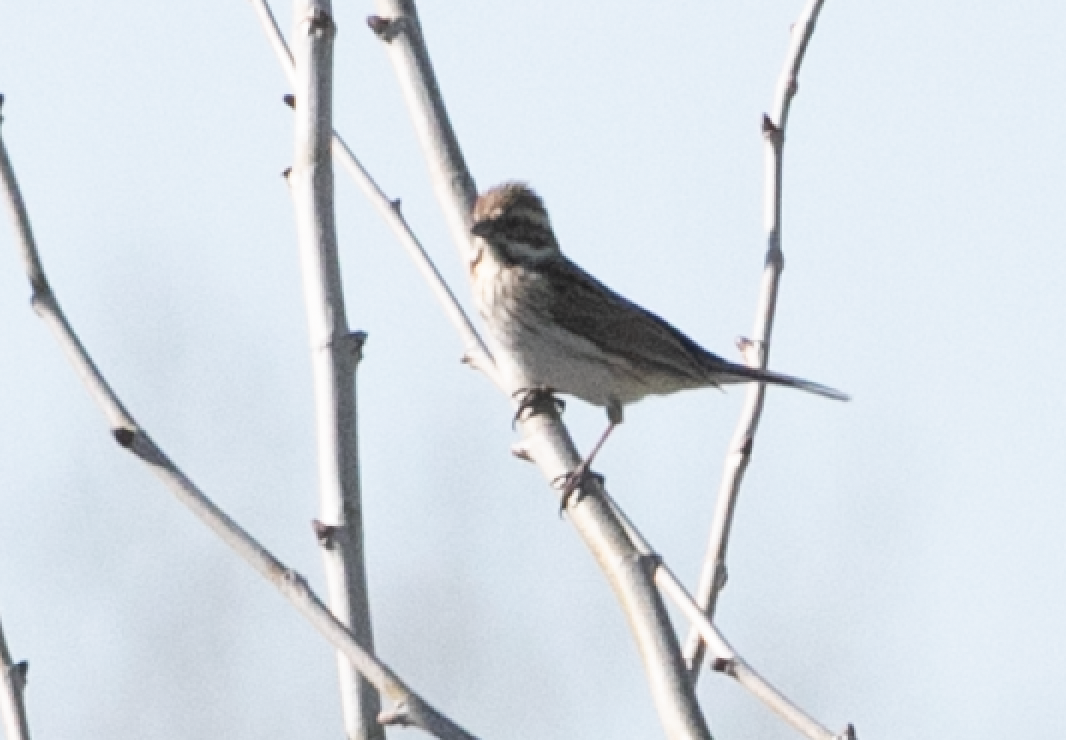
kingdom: Animalia
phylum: Chordata
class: Aves
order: Passeriformes
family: Emberizidae
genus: Emberiza
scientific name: Emberiza schoeniclus
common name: Reed bunting
